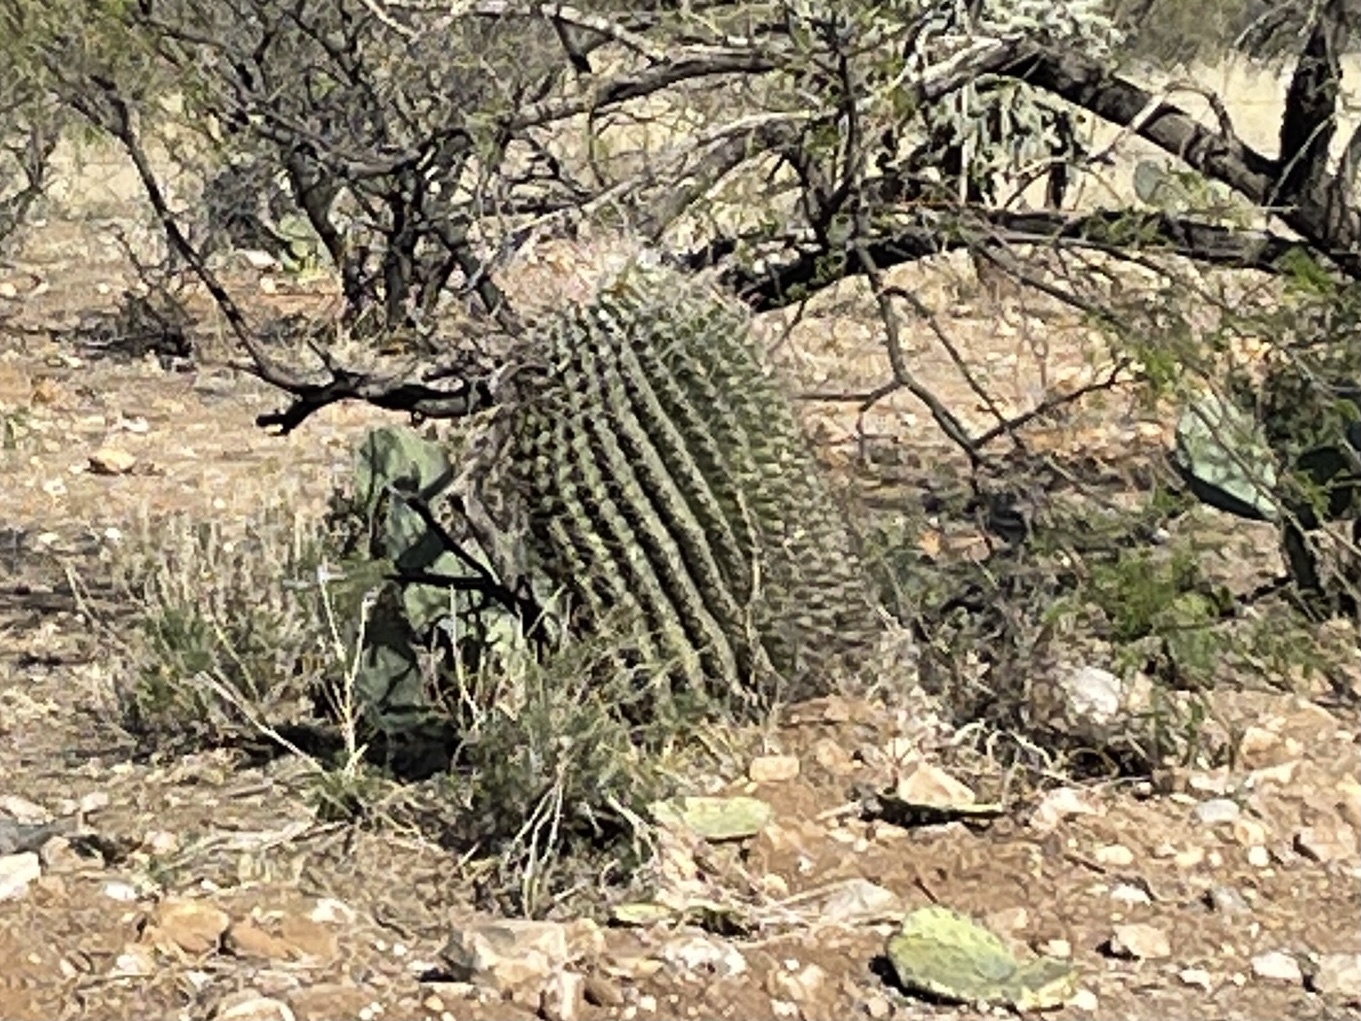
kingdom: Plantae
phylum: Tracheophyta
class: Magnoliopsida
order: Caryophyllales
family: Cactaceae
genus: Ferocactus
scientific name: Ferocactus wislizeni
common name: Candy barrel cactus
